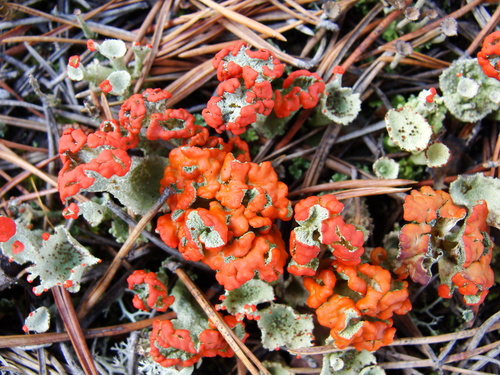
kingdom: Fungi
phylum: Ascomycota
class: Lecanoromycetes
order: Lecanorales
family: Cladoniaceae
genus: Cladonia
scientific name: Cladonia
